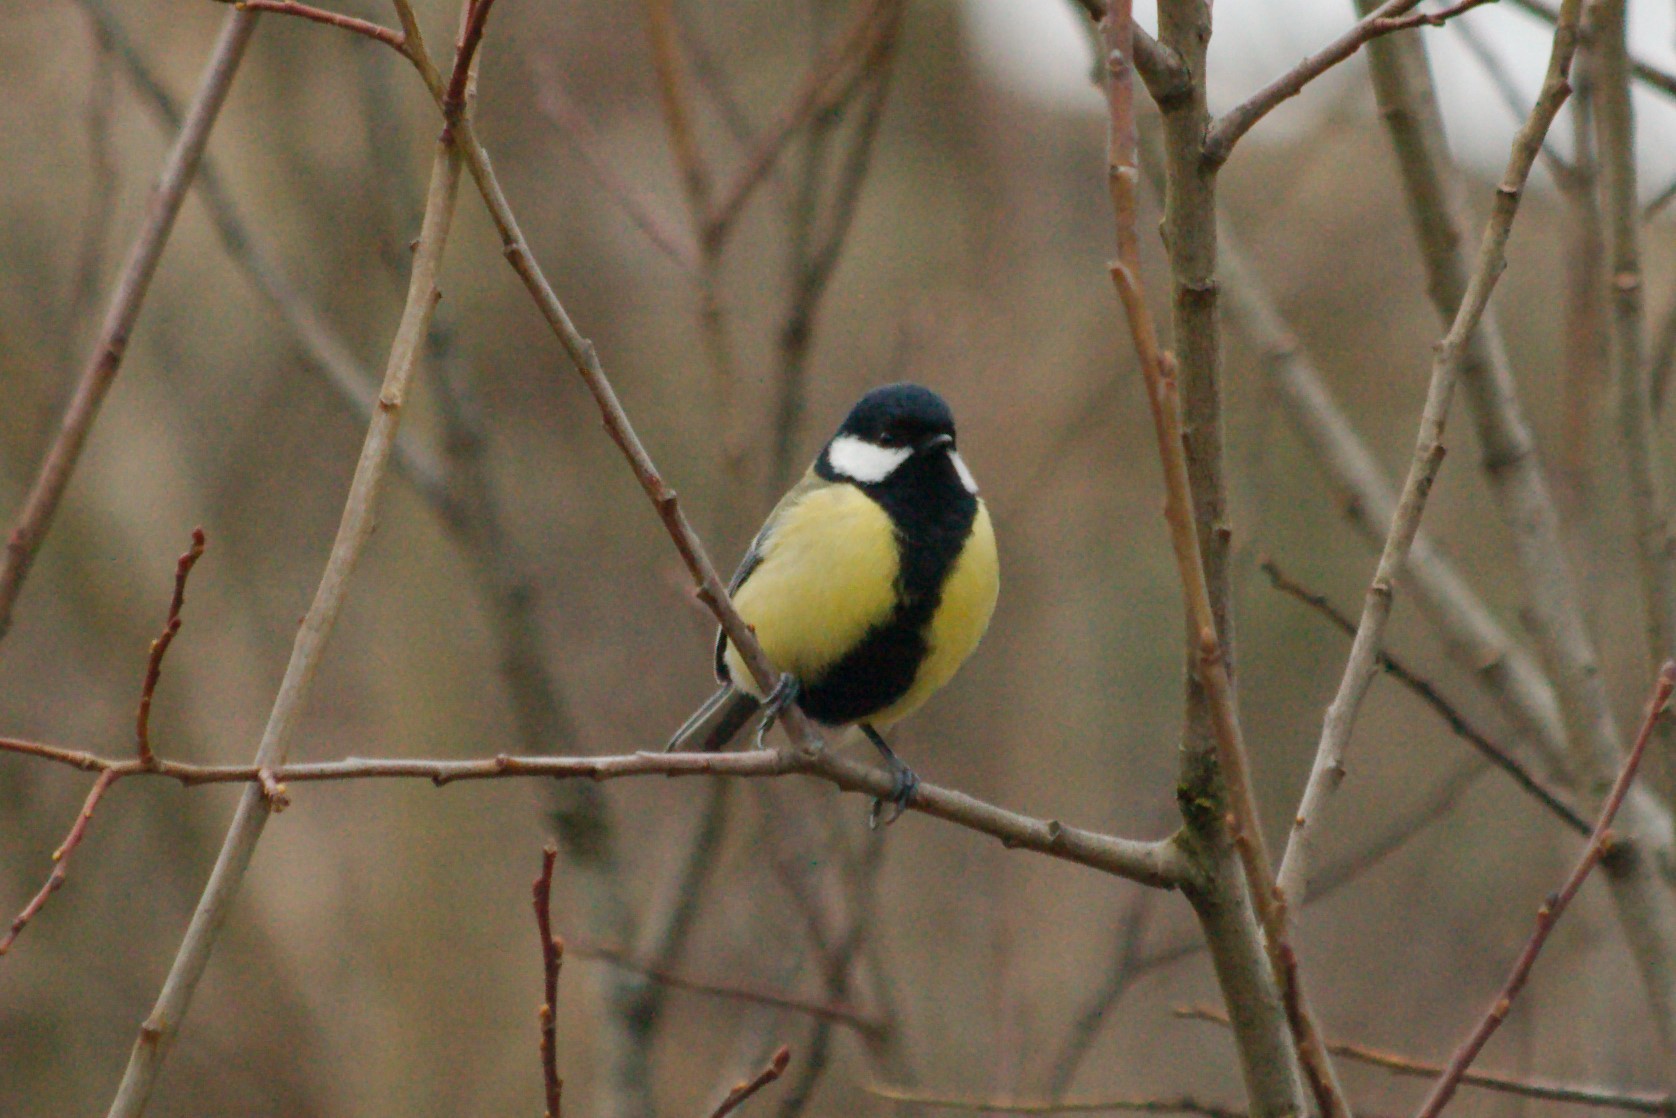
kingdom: Animalia
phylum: Chordata
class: Aves
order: Passeriformes
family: Paridae
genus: Parus
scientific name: Parus major
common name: Great tit
